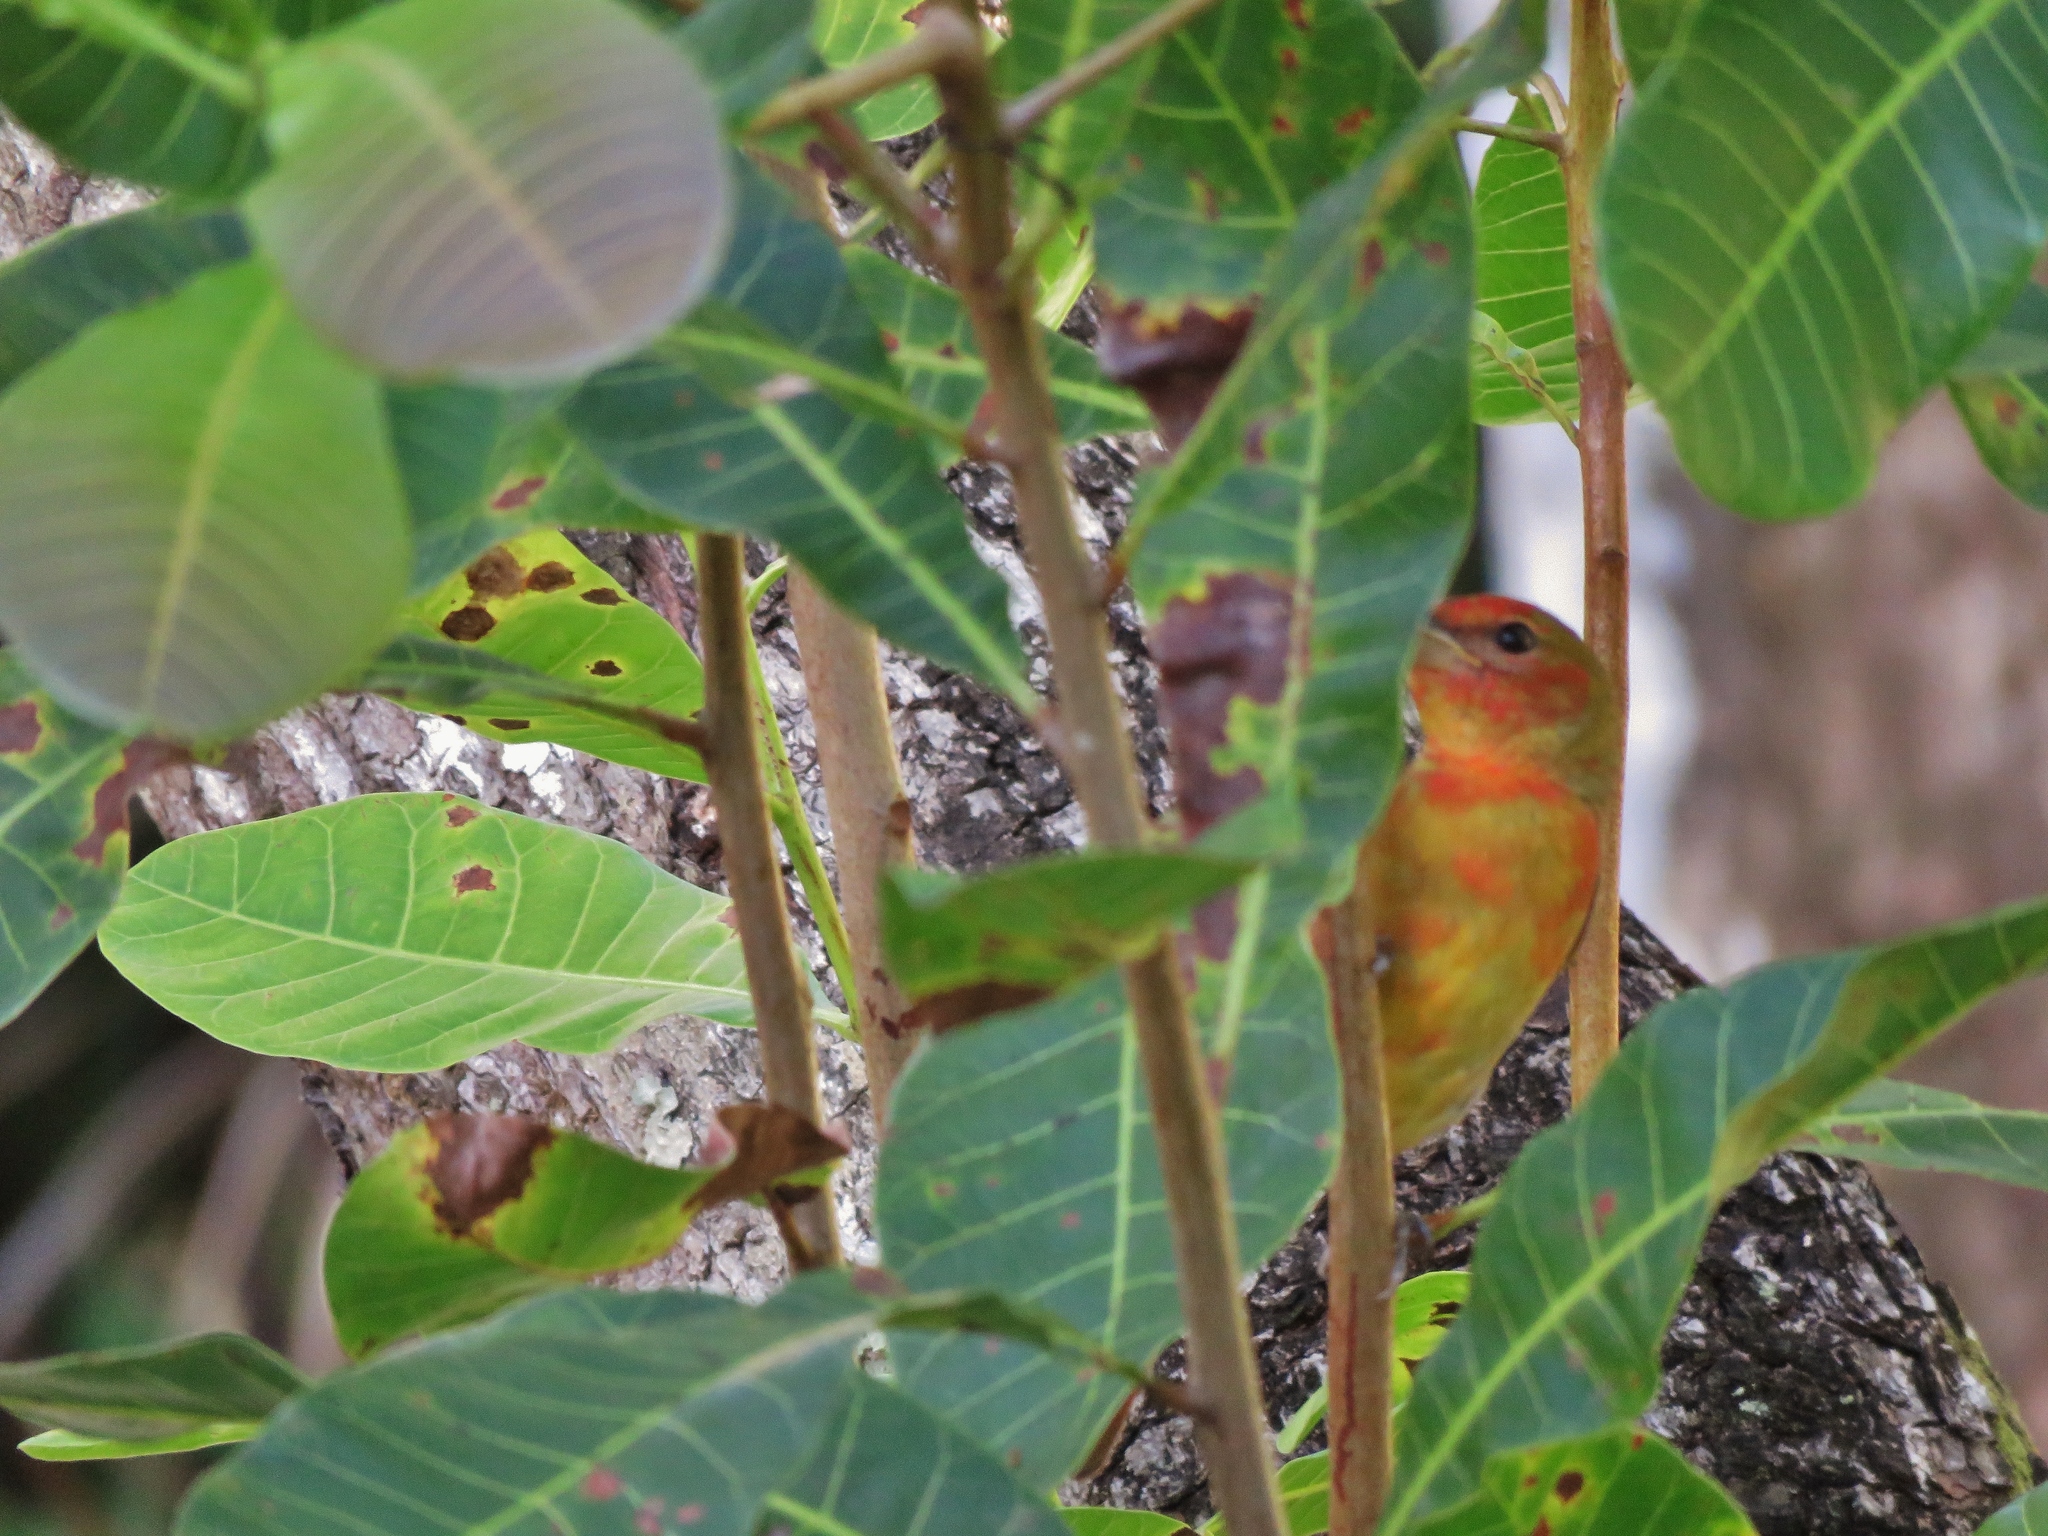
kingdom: Animalia
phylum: Chordata
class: Aves
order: Passeriformes
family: Cardinalidae
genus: Piranga
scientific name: Piranga rubra
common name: Summer tanager
